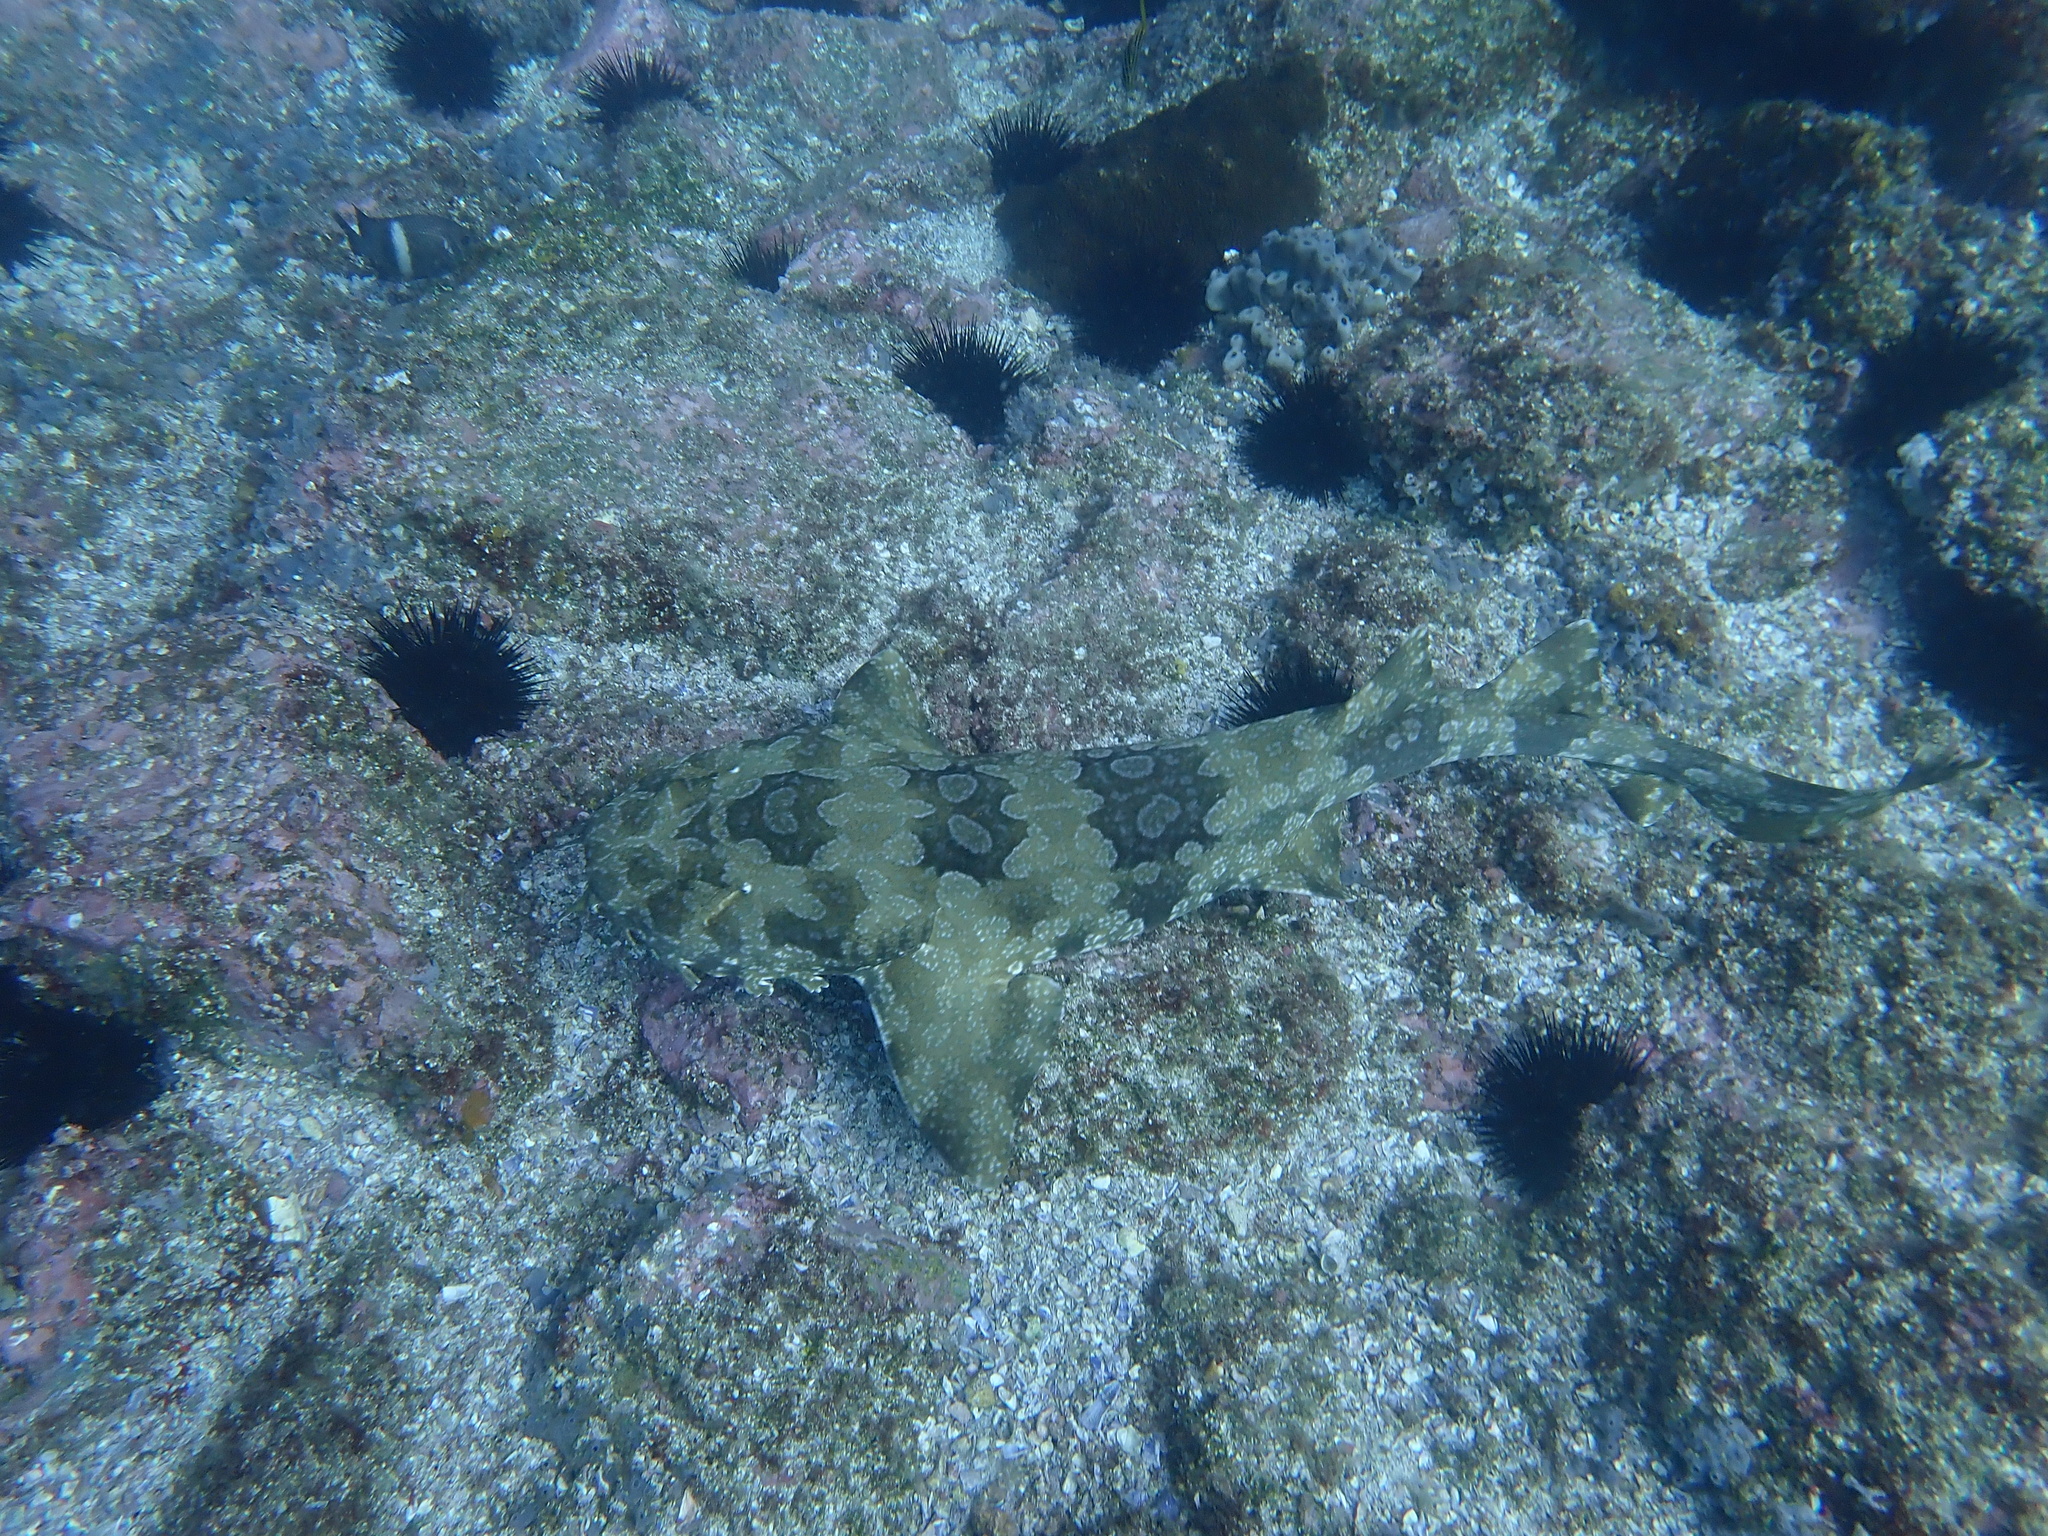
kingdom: Animalia
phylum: Chordata
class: Elasmobranchii
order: Orectolobiformes
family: Orectolobidae
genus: Orectolobus
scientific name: Orectolobus maculatus
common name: Spotted wobbegong
